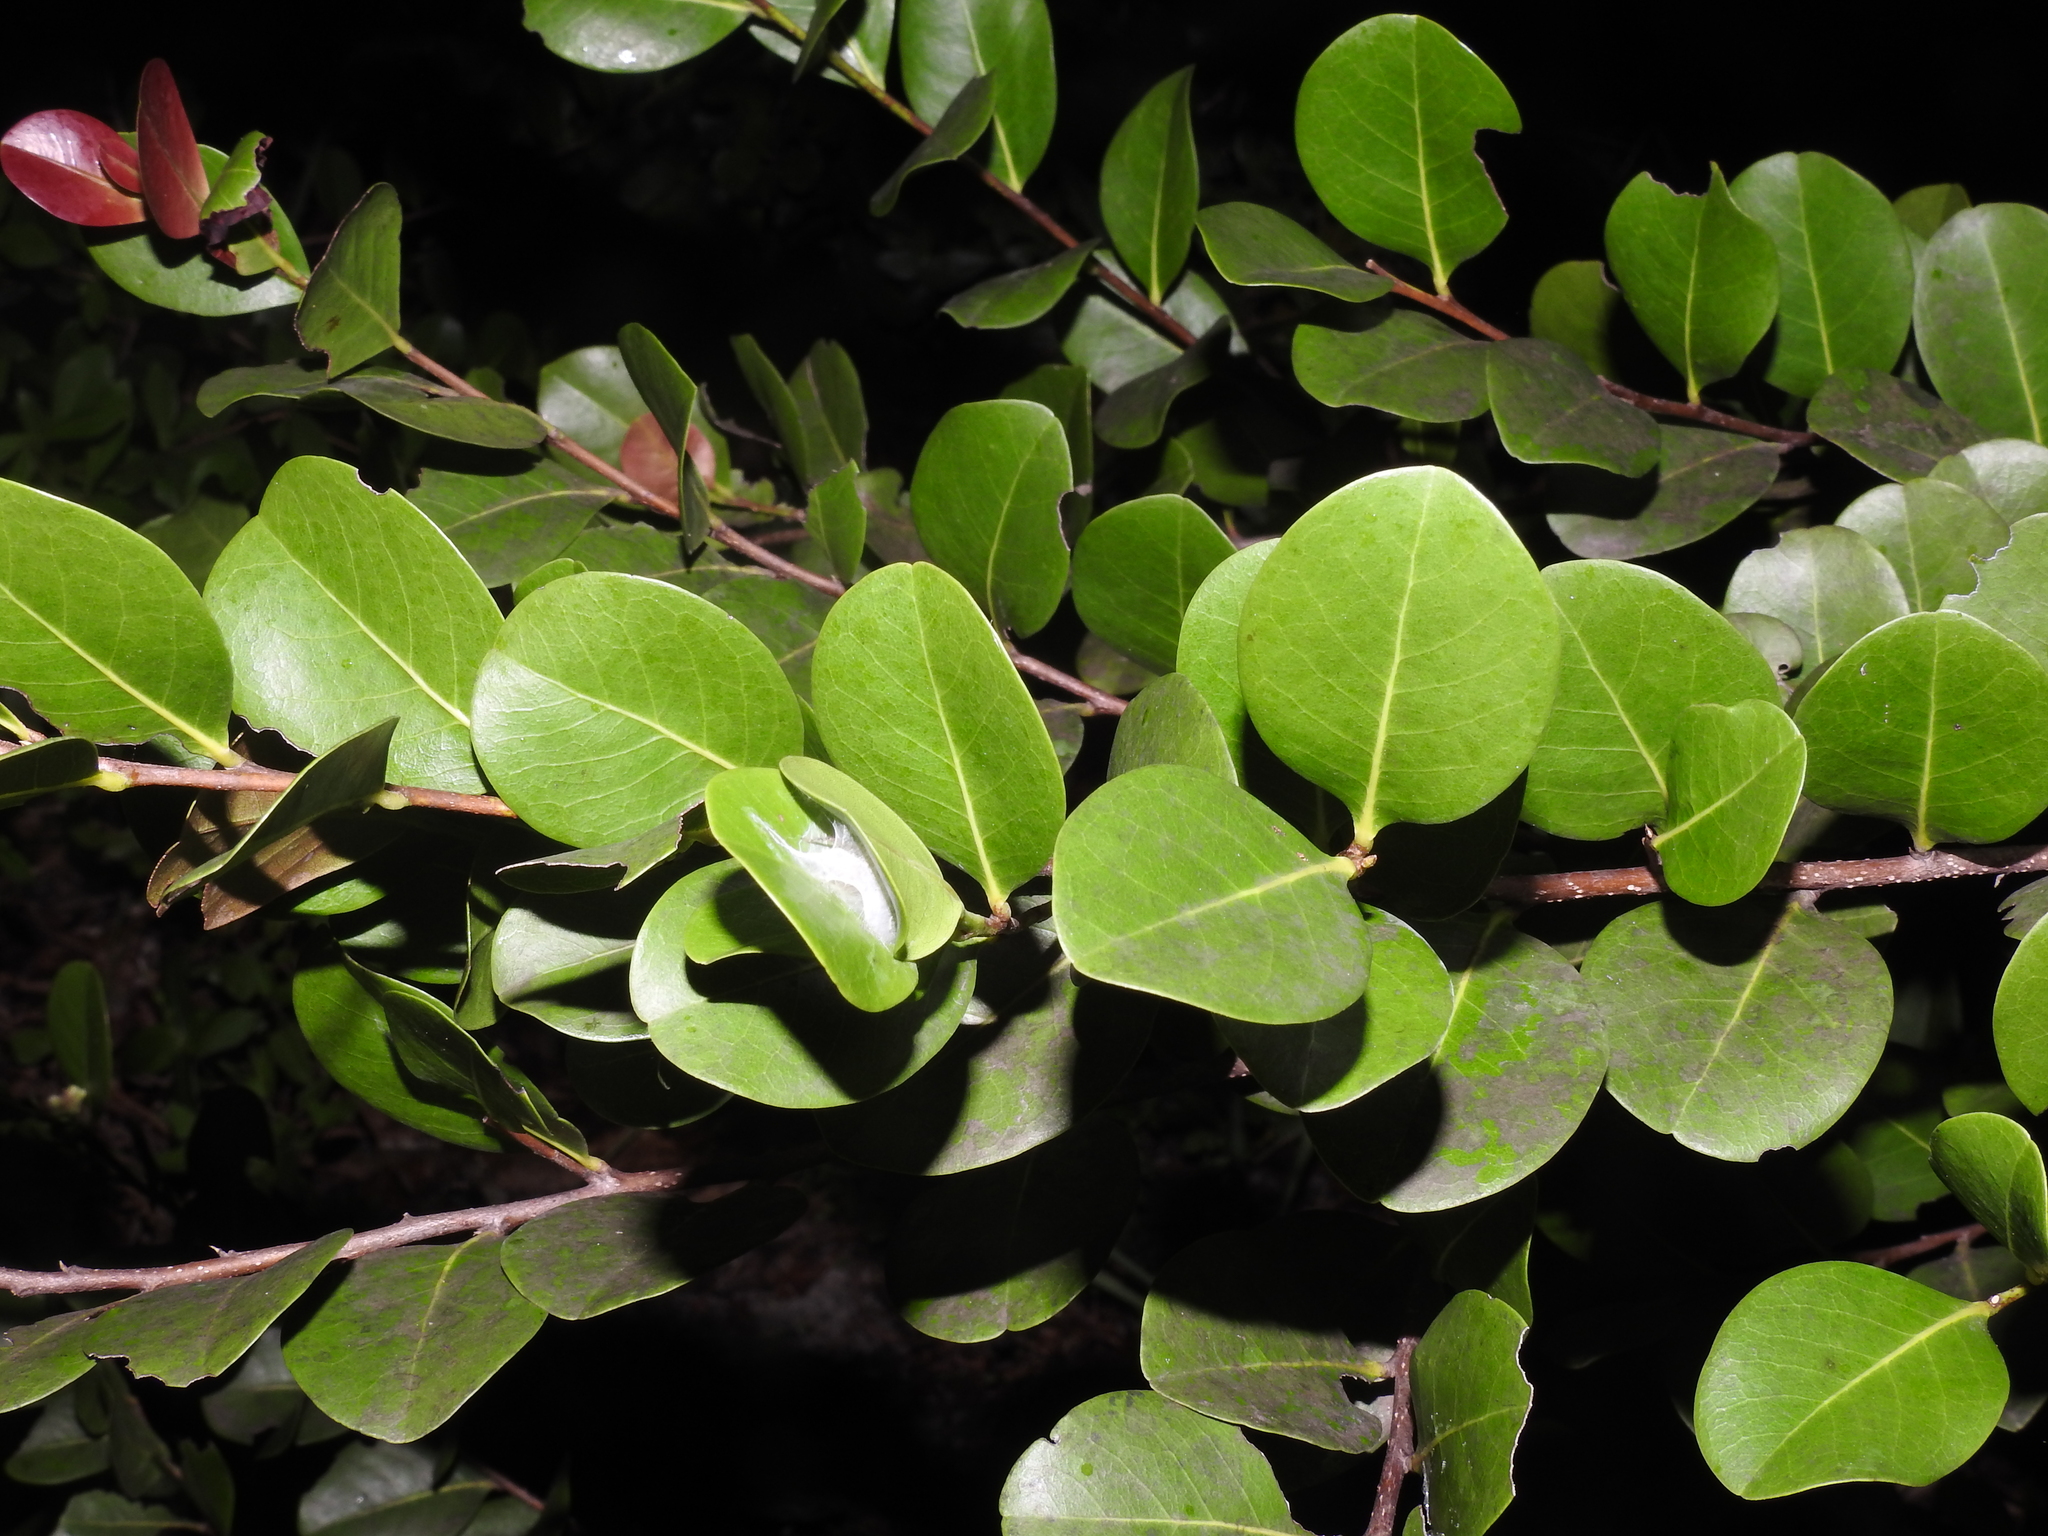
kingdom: Plantae
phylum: Tracheophyta
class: Magnoliopsida
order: Malpighiales
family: Chrysobalanaceae
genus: Chrysobalanus
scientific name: Chrysobalanus icaco
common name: Coco plum
